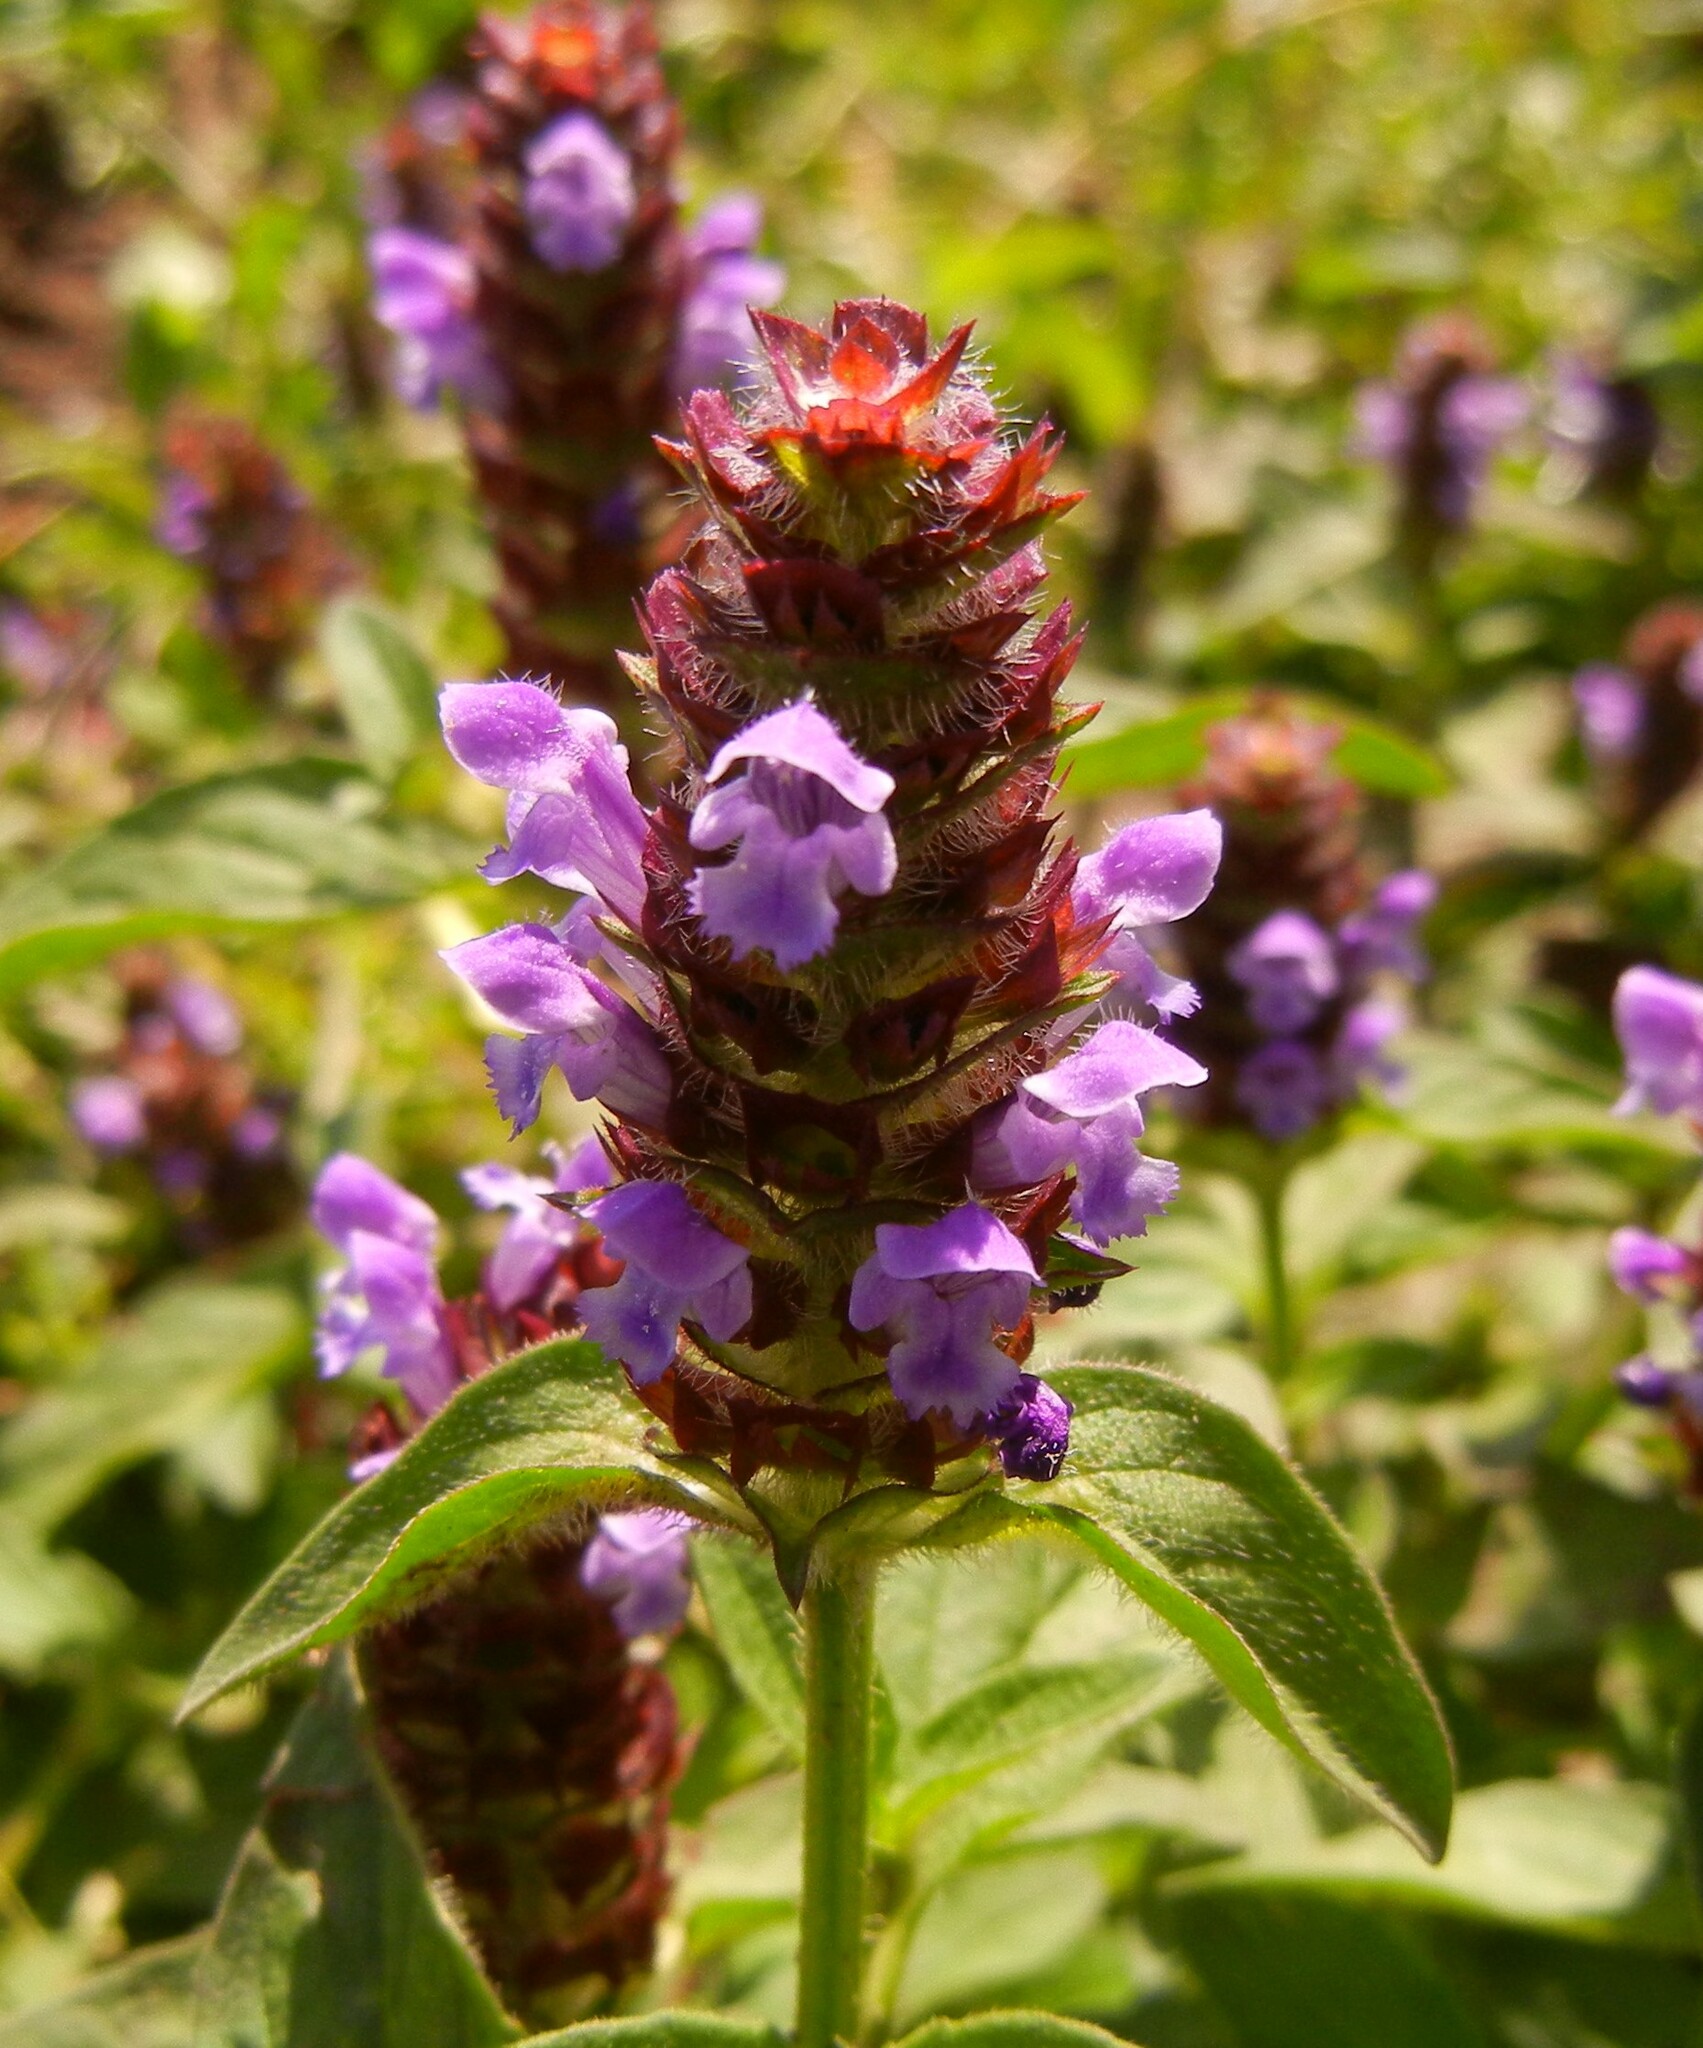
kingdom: Plantae
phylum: Tracheophyta
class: Magnoliopsida
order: Lamiales
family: Lamiaceae
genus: Prunella
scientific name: Prunella vulgaris
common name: Heal-all
